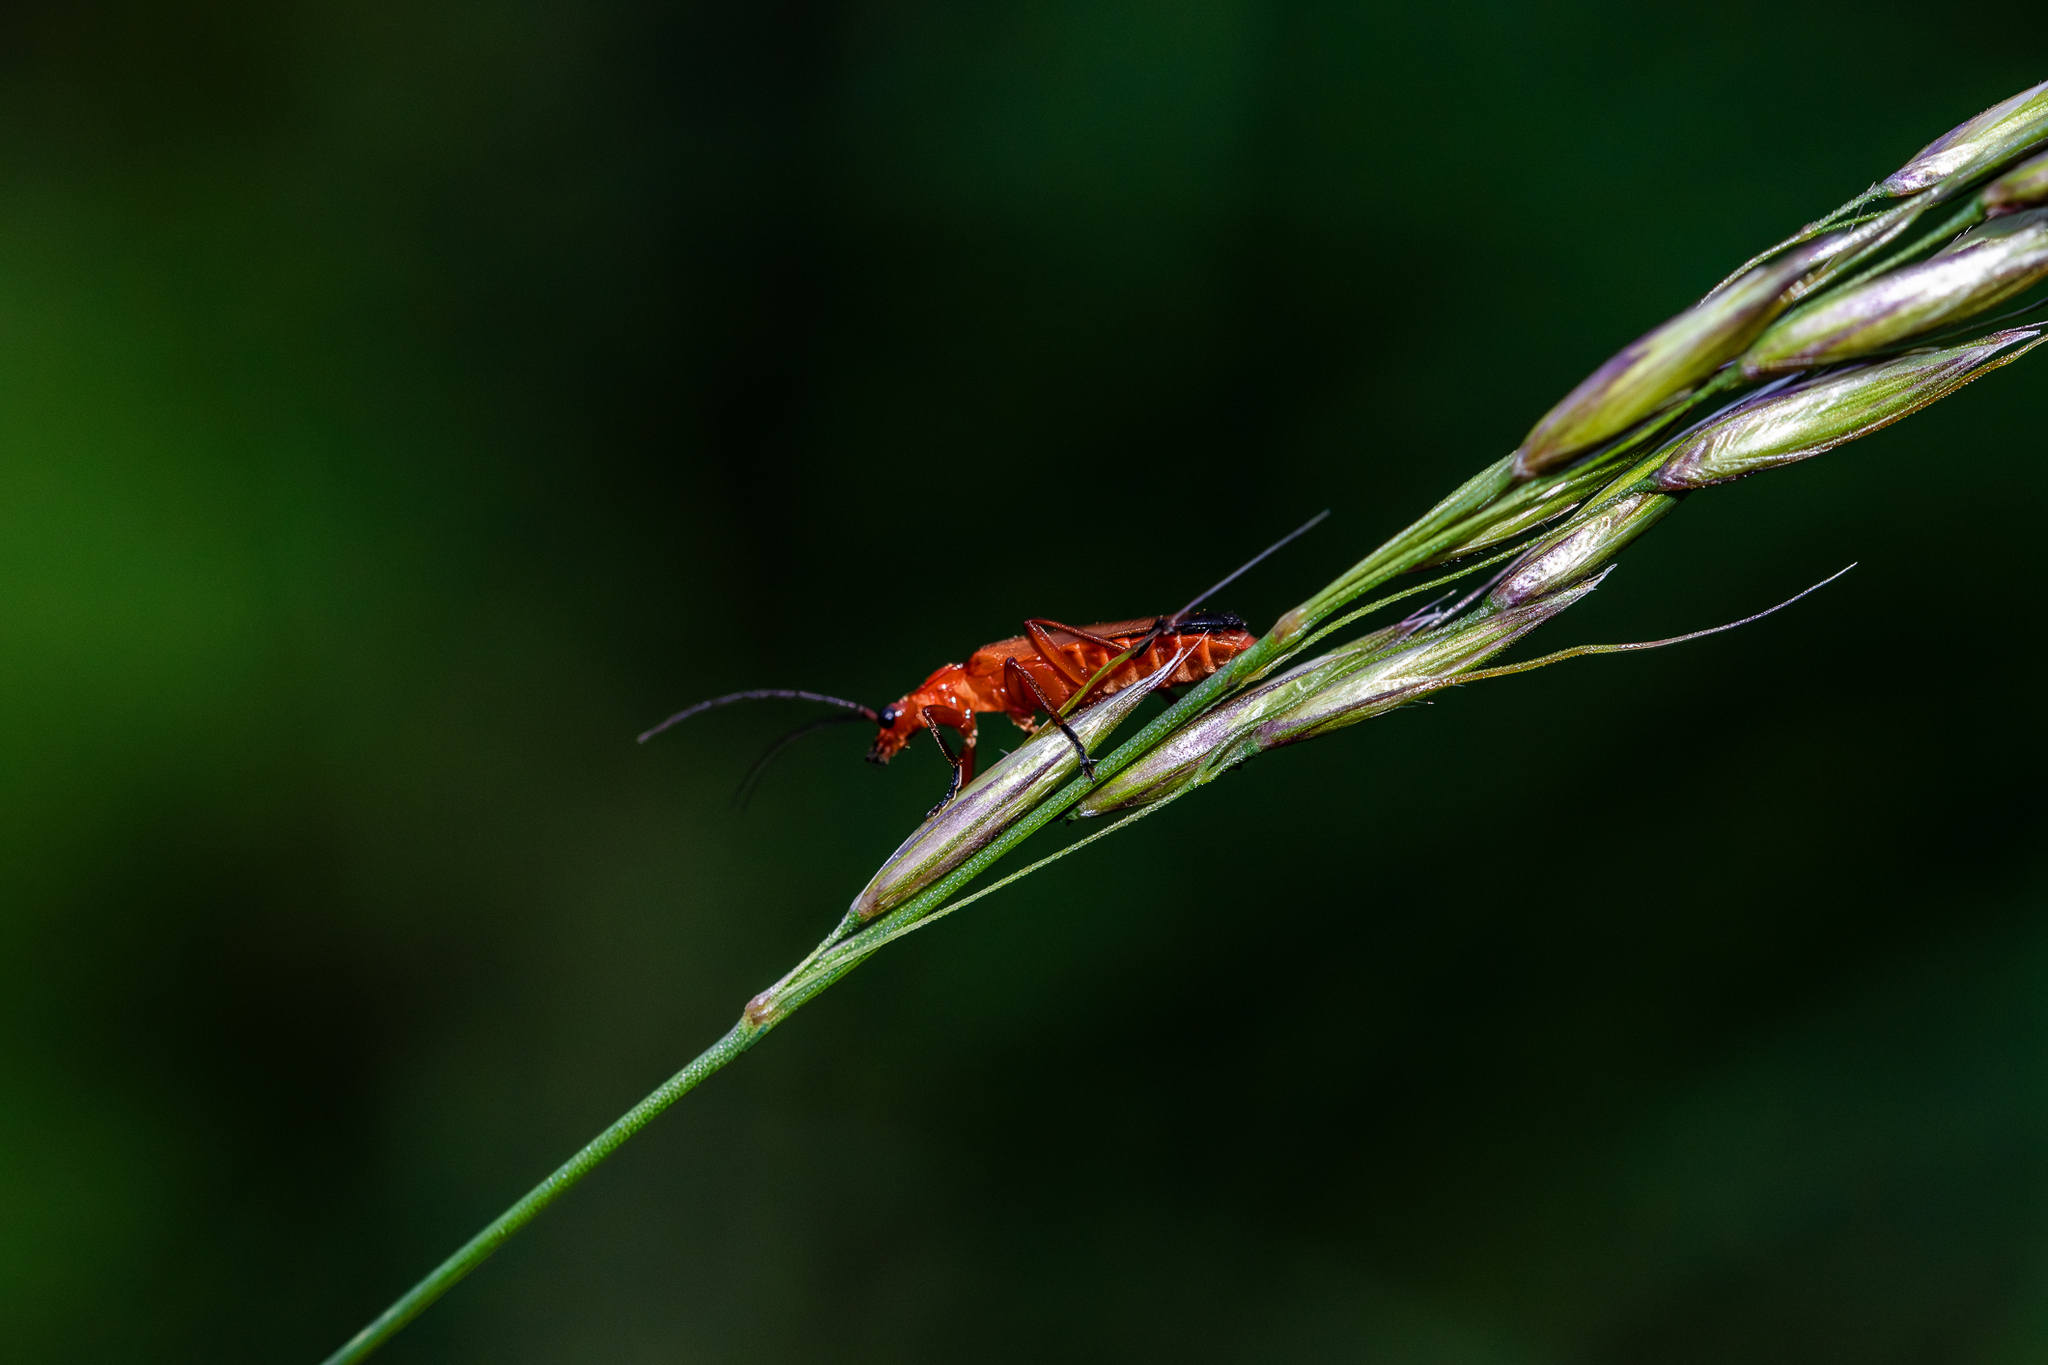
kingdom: Animalia
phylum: Arthropoda
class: Insecta
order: Coleoptera
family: Cantharidae
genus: Rhagonycha
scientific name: Rhagonycha fulva
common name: Common red soldier beetle
